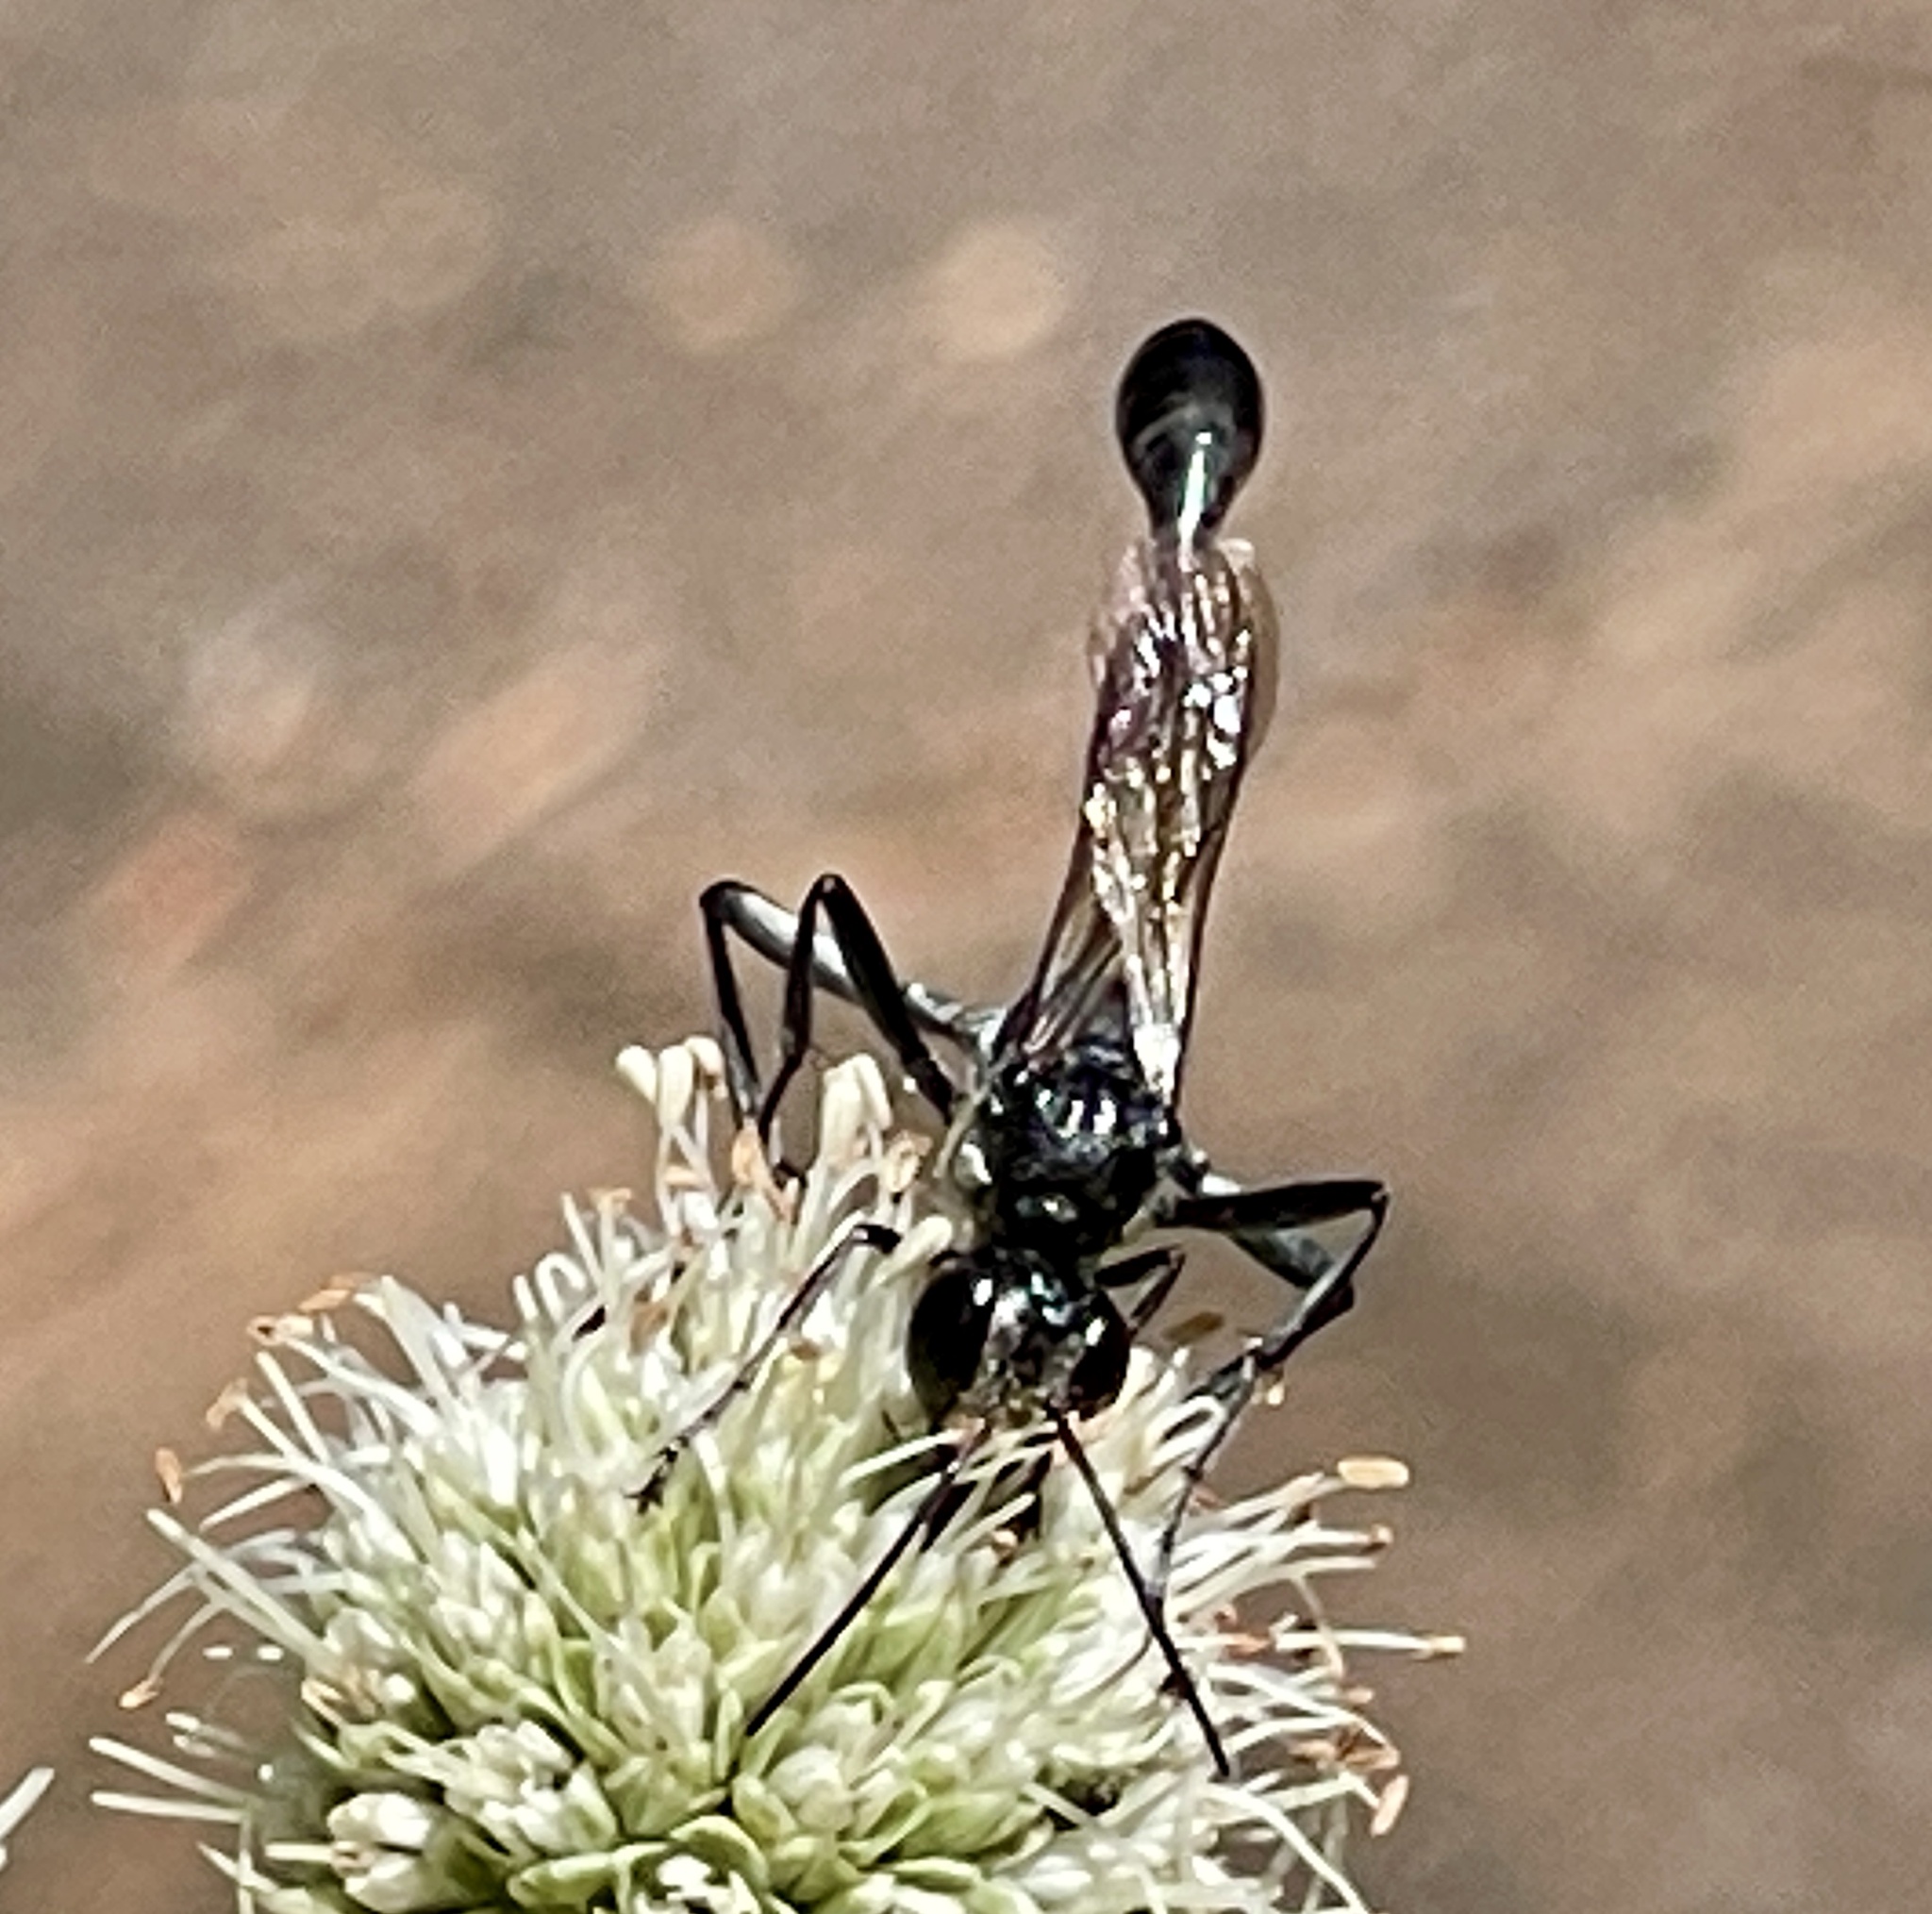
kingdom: Animalia
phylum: Arthropoda
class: Insecta
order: Hymenoptera
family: Sphecidae
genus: Eremnophila
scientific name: Eremnophila aureonotata
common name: Gold-marked thread-waisted wasp
